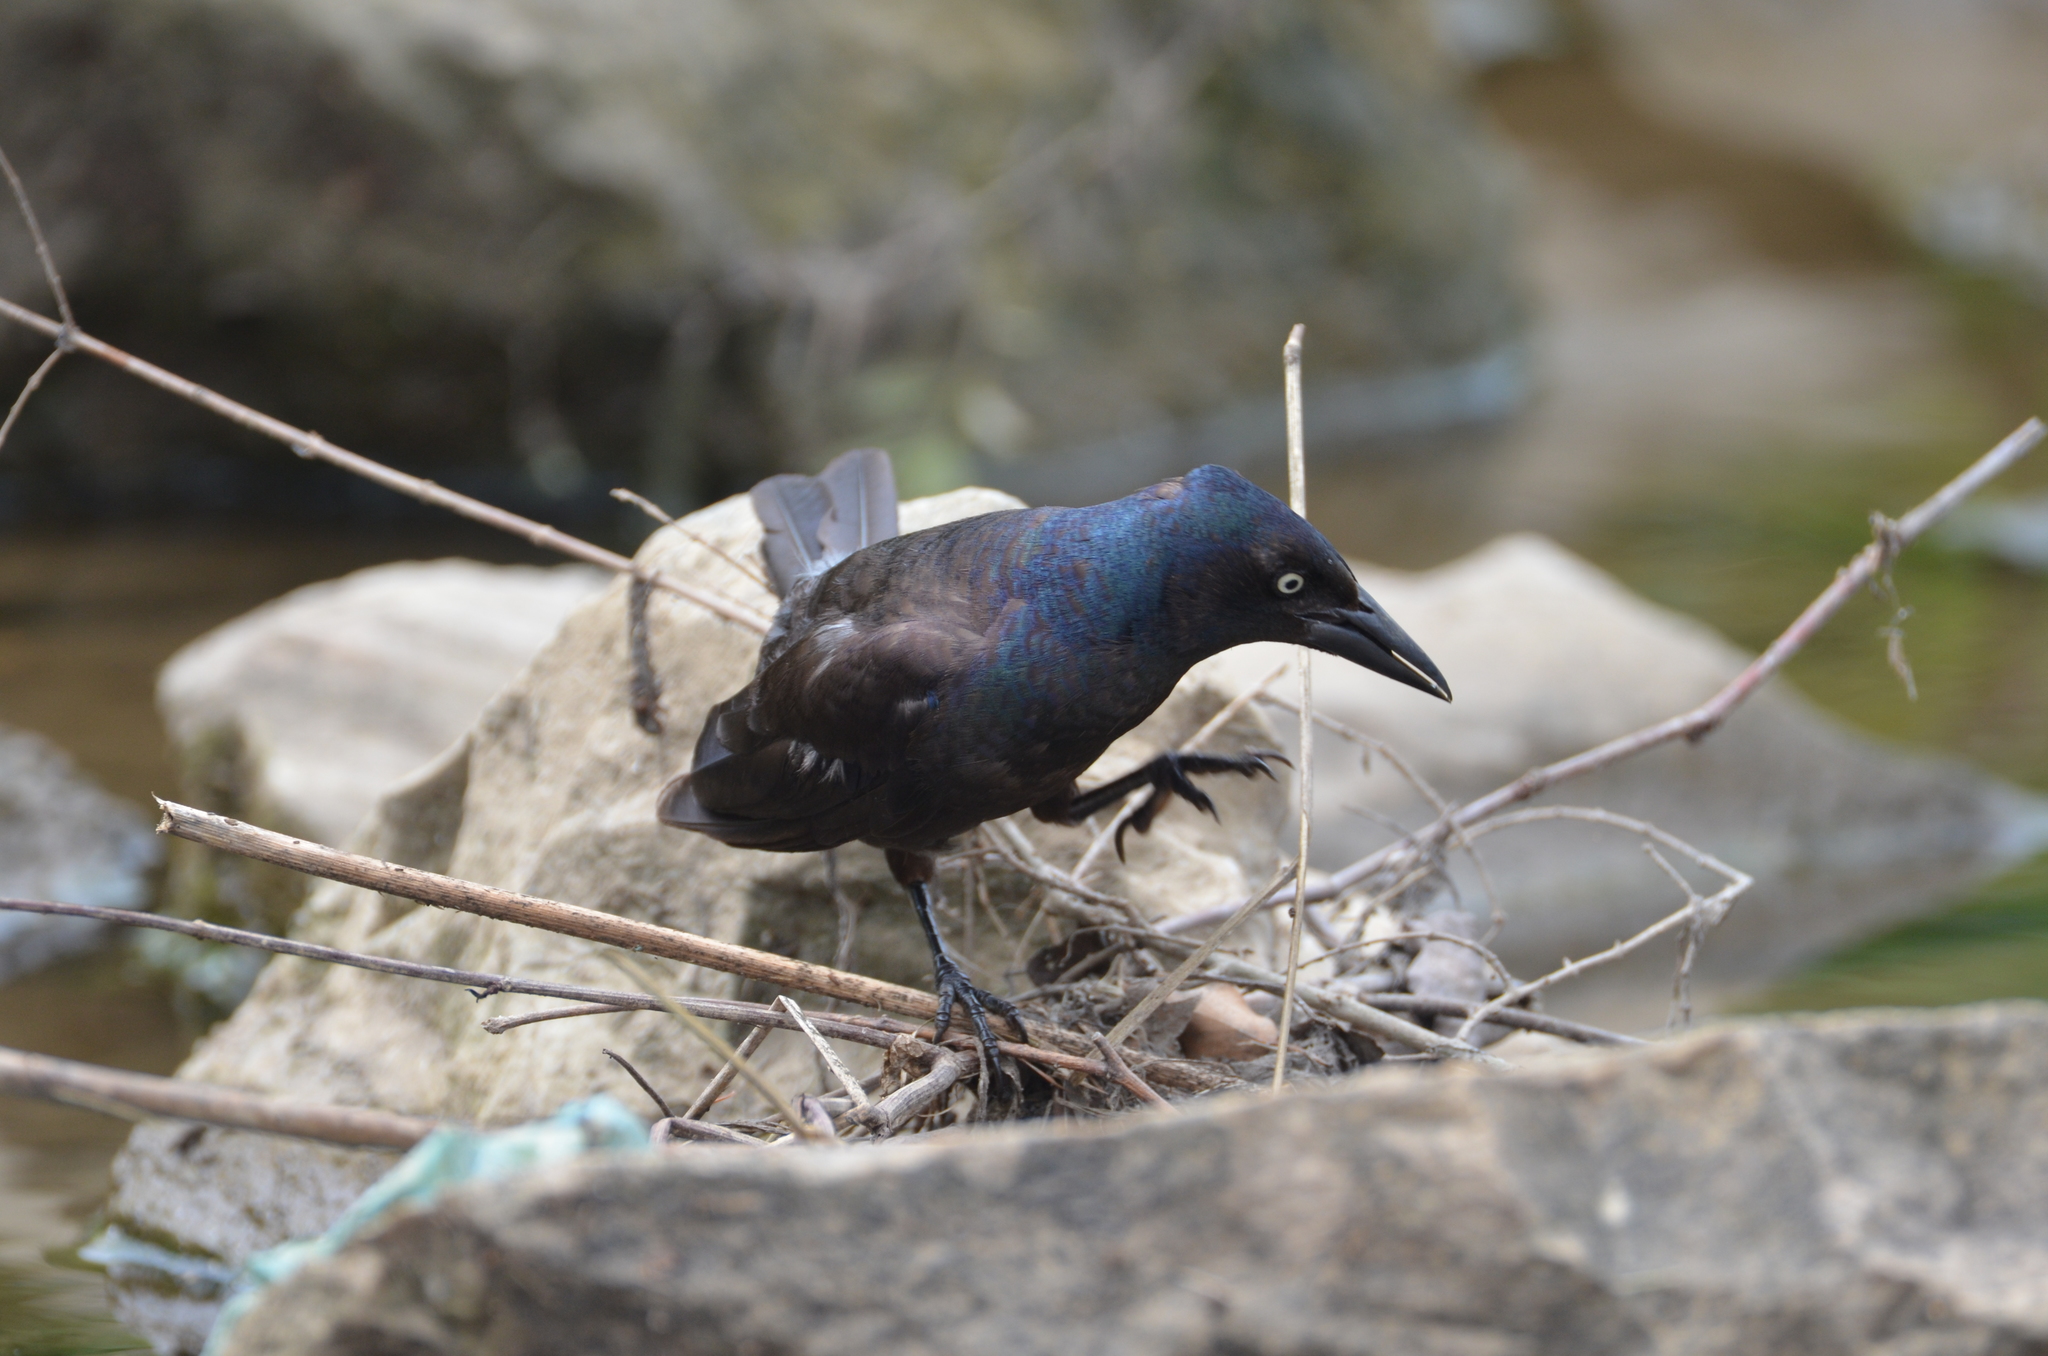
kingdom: Animalia
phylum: Chordata
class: Aves
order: Passeriformes
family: Icteridae
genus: Quiscalus
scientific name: Quiscalus quiscula
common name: Common grackle
